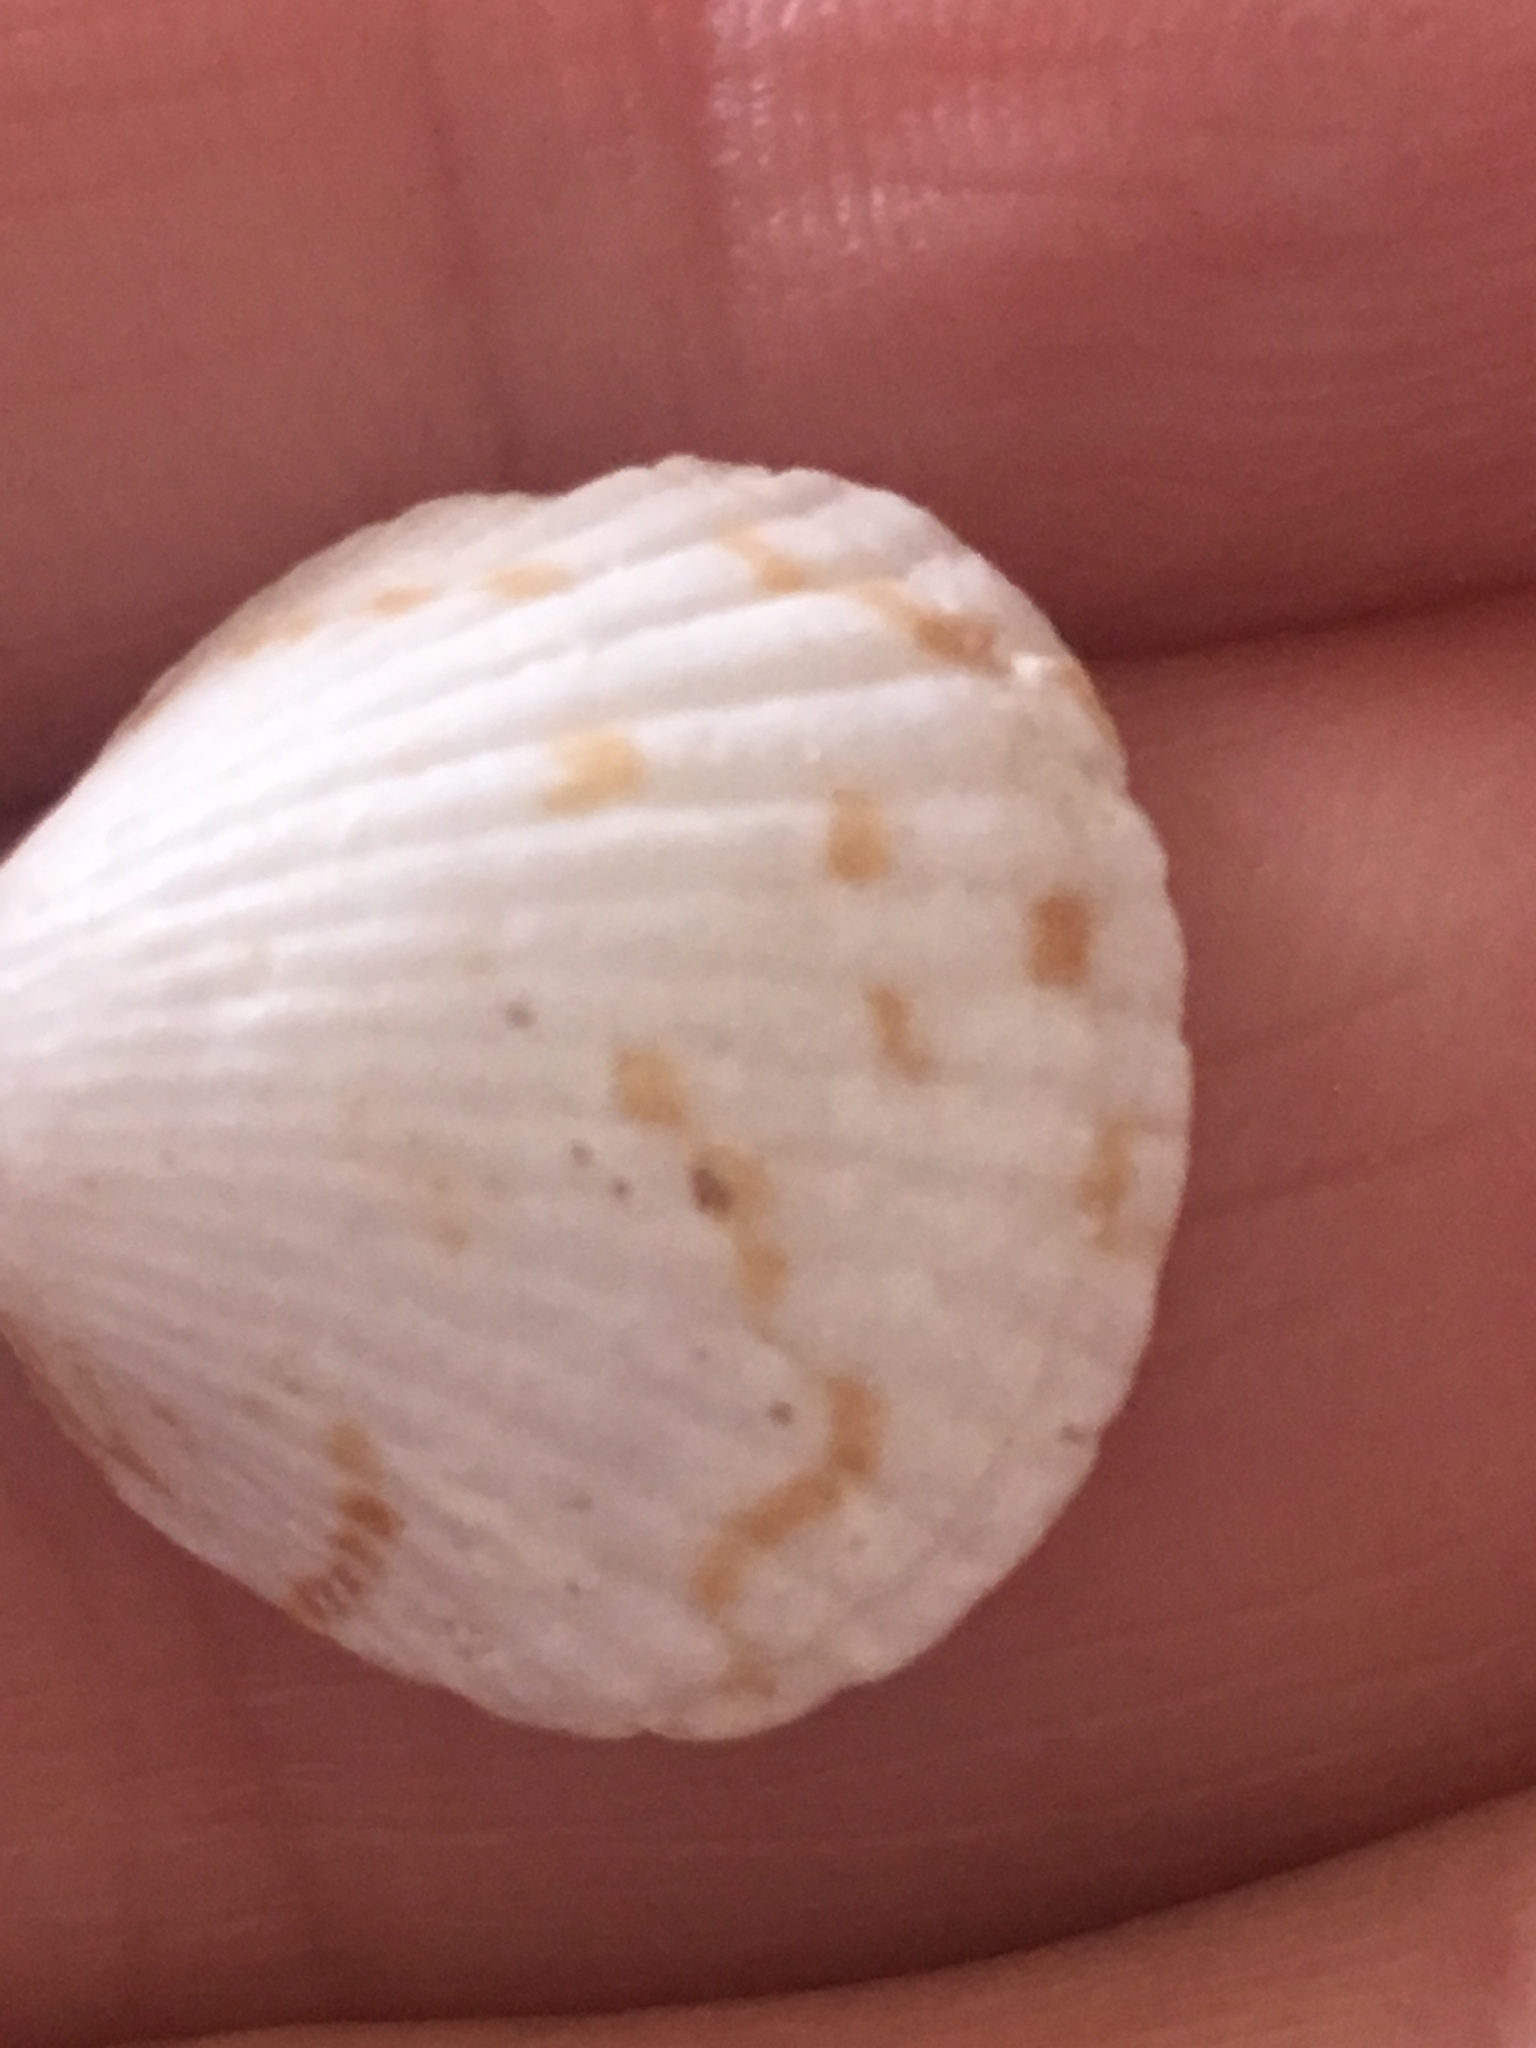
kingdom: Animalia
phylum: Mollusca
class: Bivalvia
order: Arcida
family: Glycymerididae
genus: Tucetona
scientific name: Tucetona pectinata
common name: Comb bittersweet
